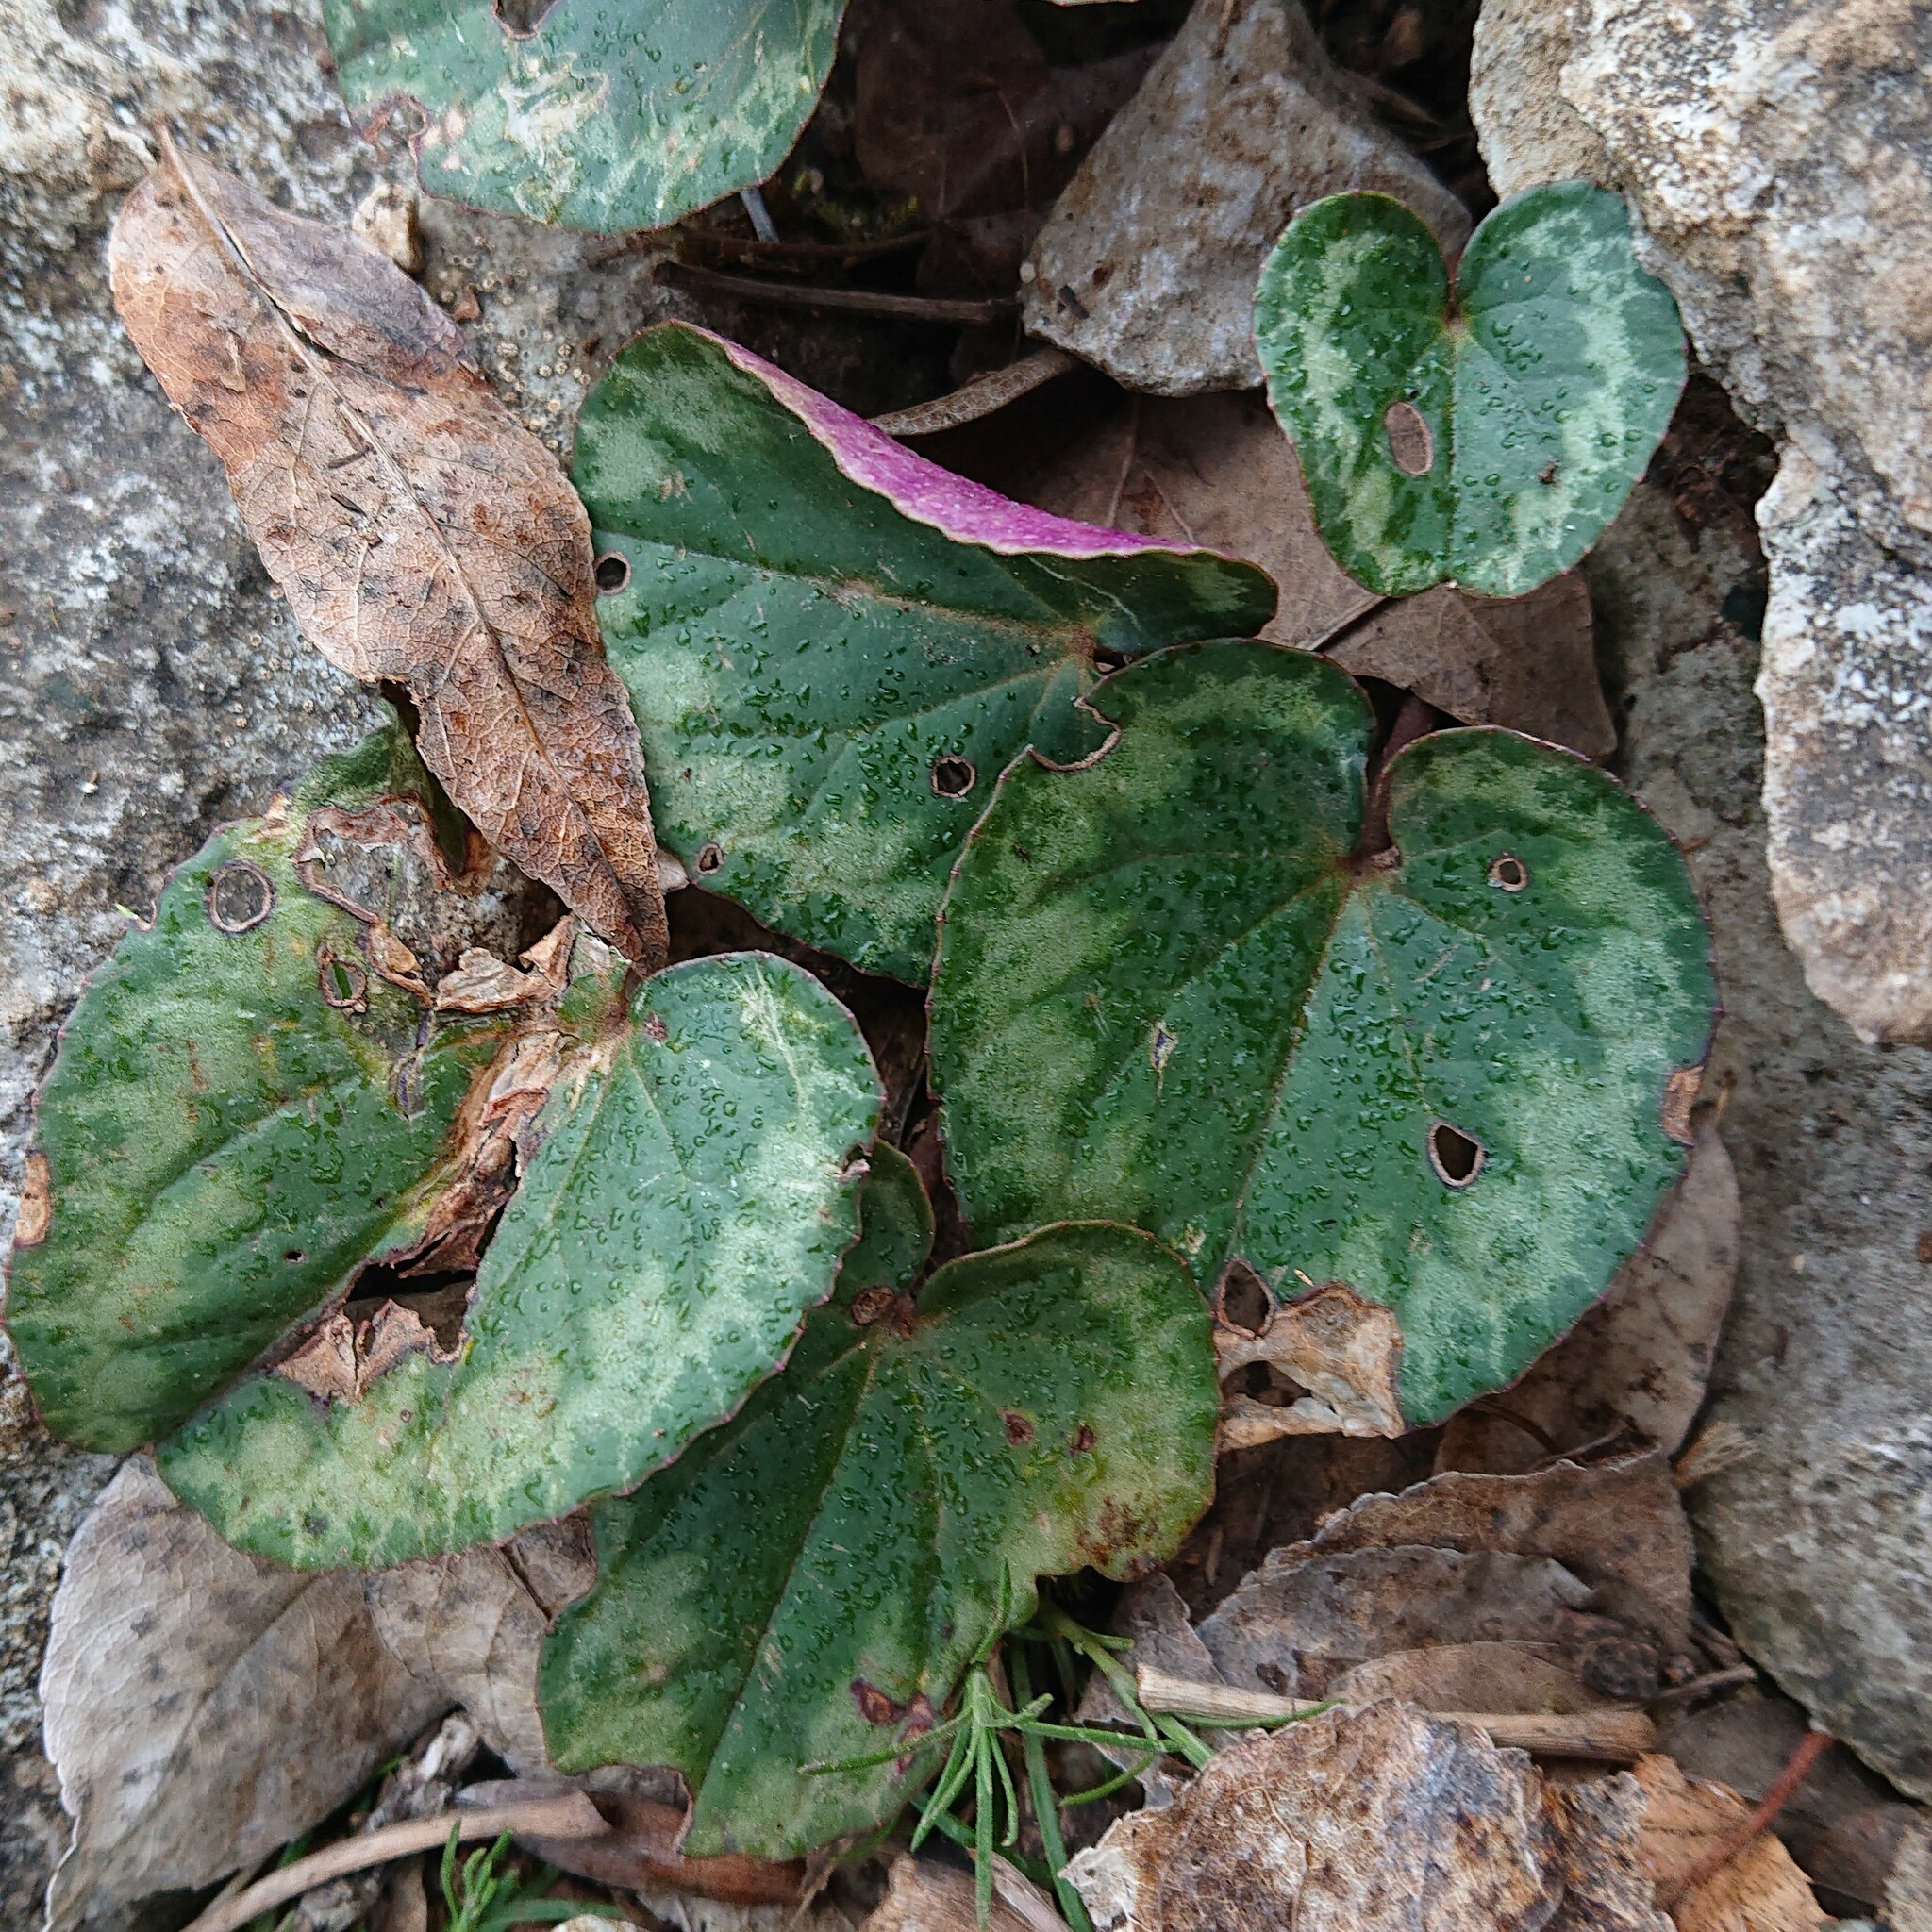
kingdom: Plantae
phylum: Tracheophyta
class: Magnoliopsida
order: Ericales
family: Primulaceae
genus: Cyclamen
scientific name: Cyclamen purpurascens
